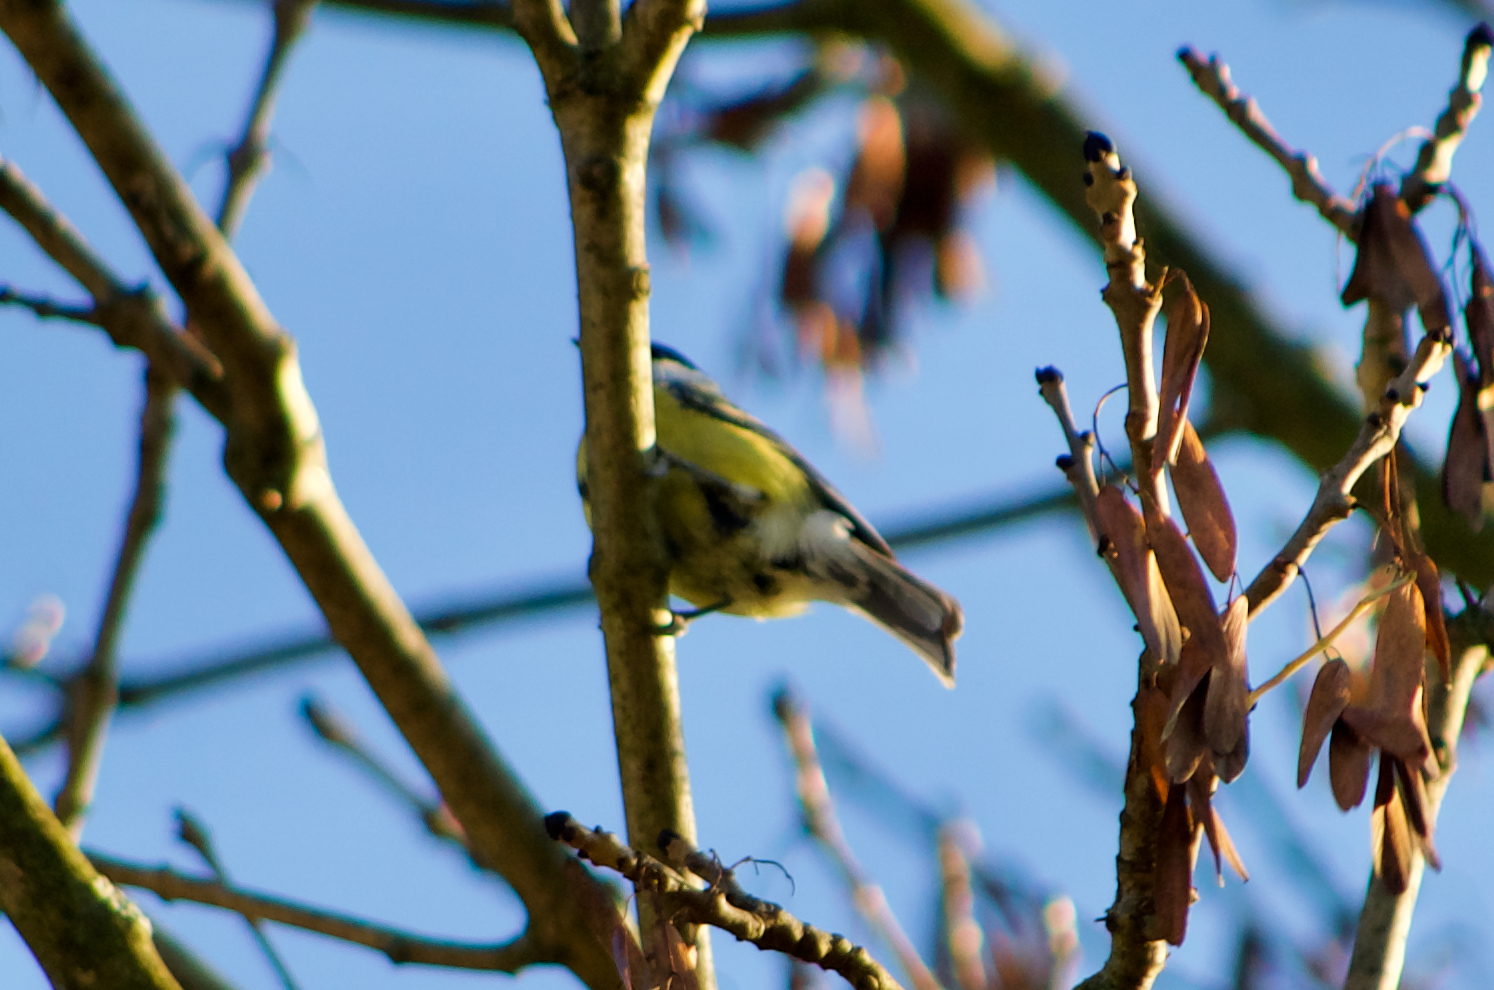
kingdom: Animalia
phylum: Chordata
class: Aves
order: Passeriformes
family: Paridae
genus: Parus
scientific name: Parus major
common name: Great tit
